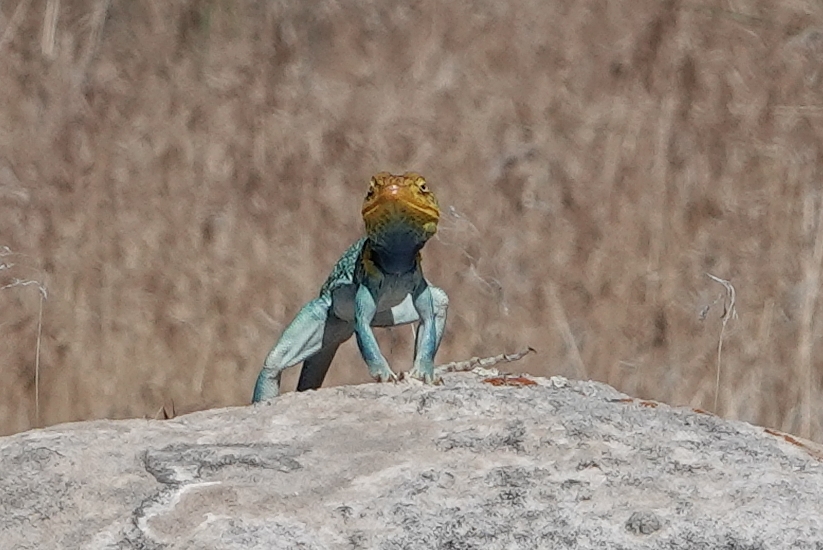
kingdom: Animalia
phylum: Chordata
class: Squamata
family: Crotaphytidae
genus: Crotaphytus
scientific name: Crotaphytus collaris
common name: Collared lizard
